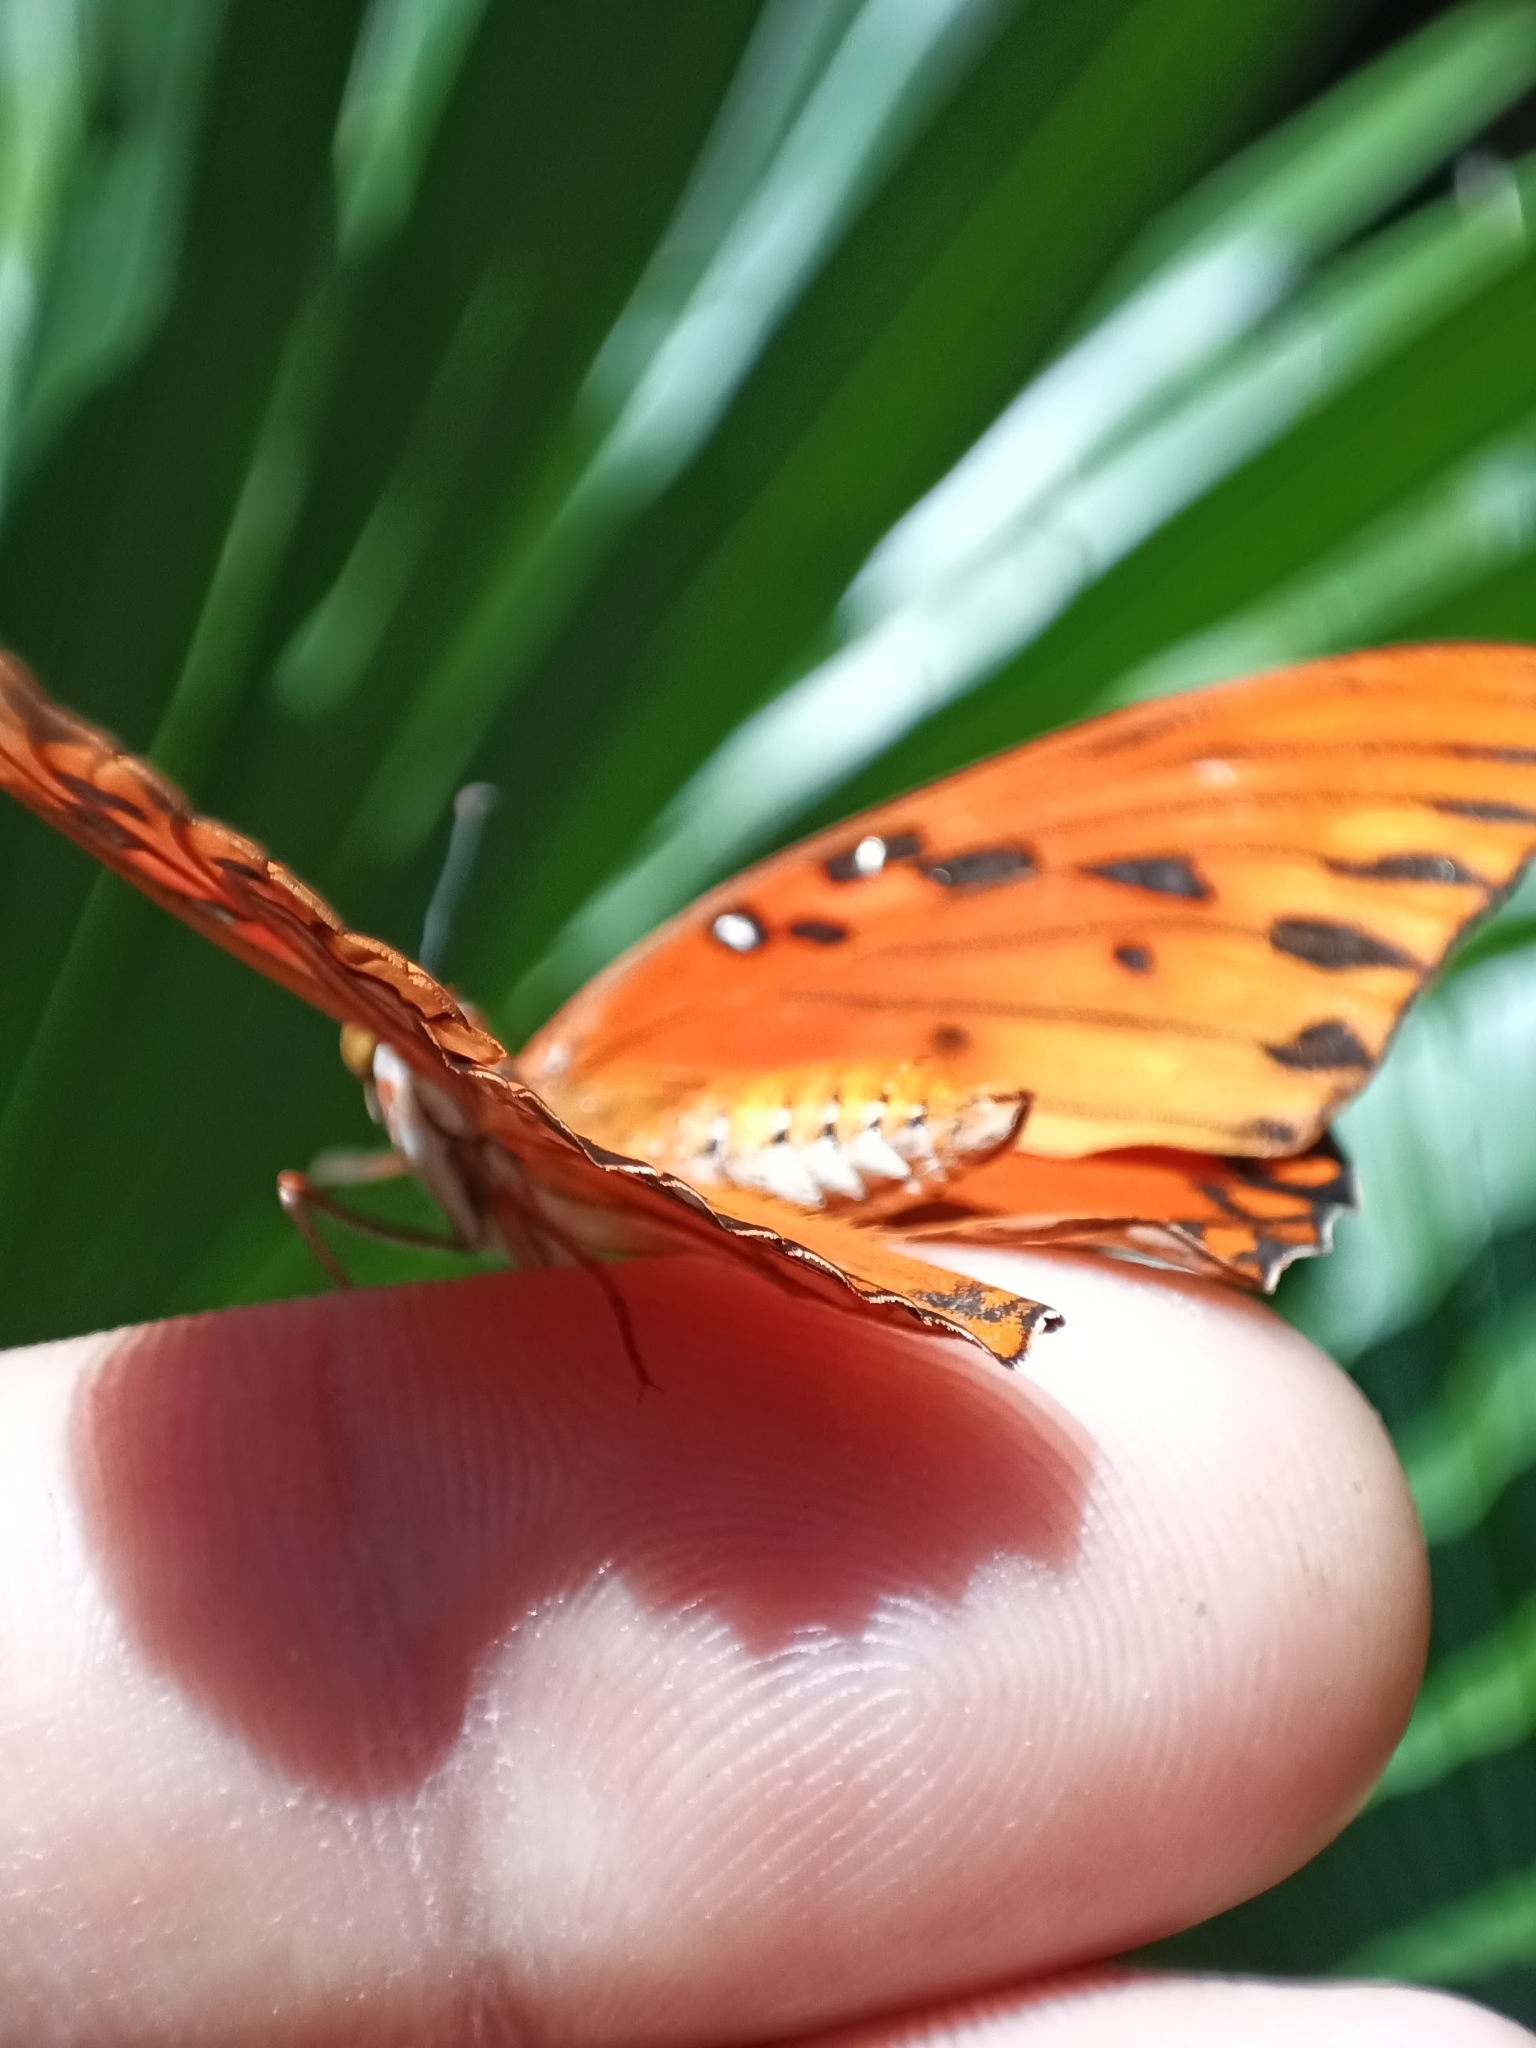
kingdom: Animalia
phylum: Arthropoda
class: Insecta
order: Lepidoptera
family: Nymphalidae
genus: Dione
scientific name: Dione vanillae
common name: Gulf fritillary
